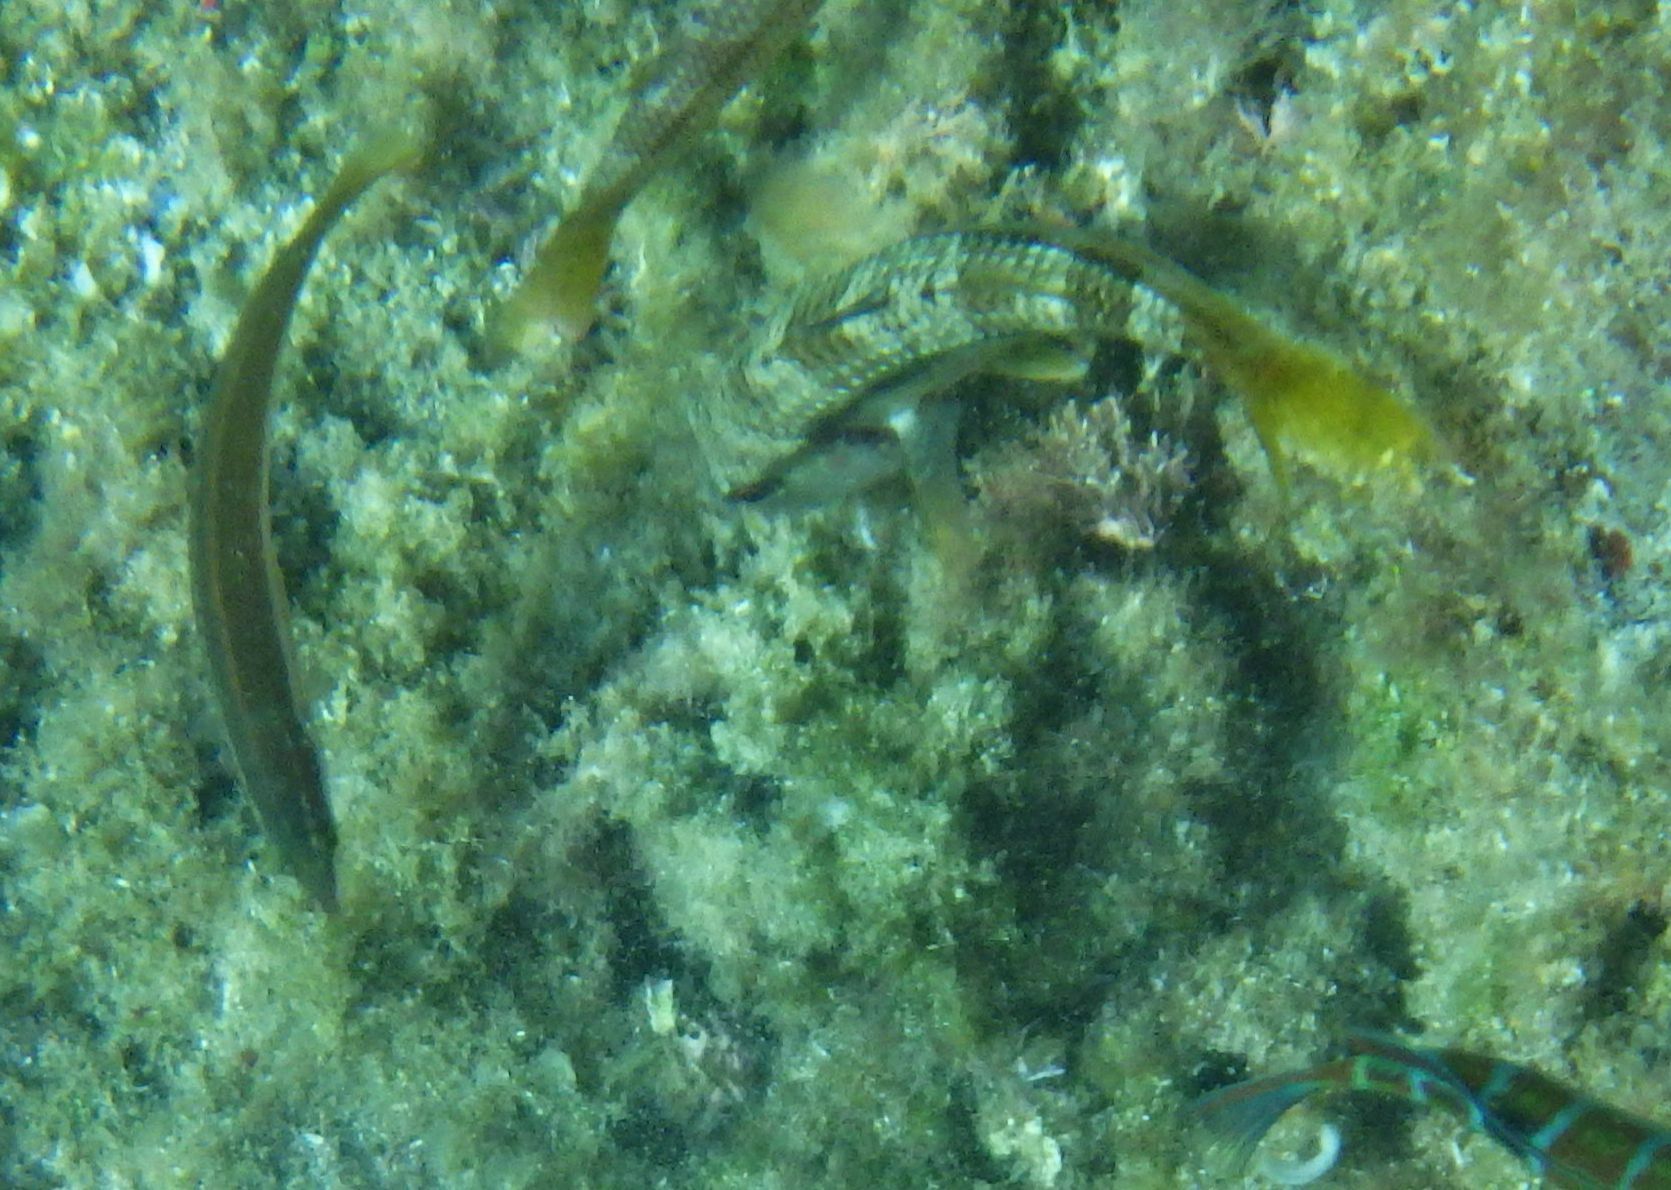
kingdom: Animalia
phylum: Chordata
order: Perciformes
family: Mullidae
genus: Mullus
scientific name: Mullus surmuletus
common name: Red mullet
